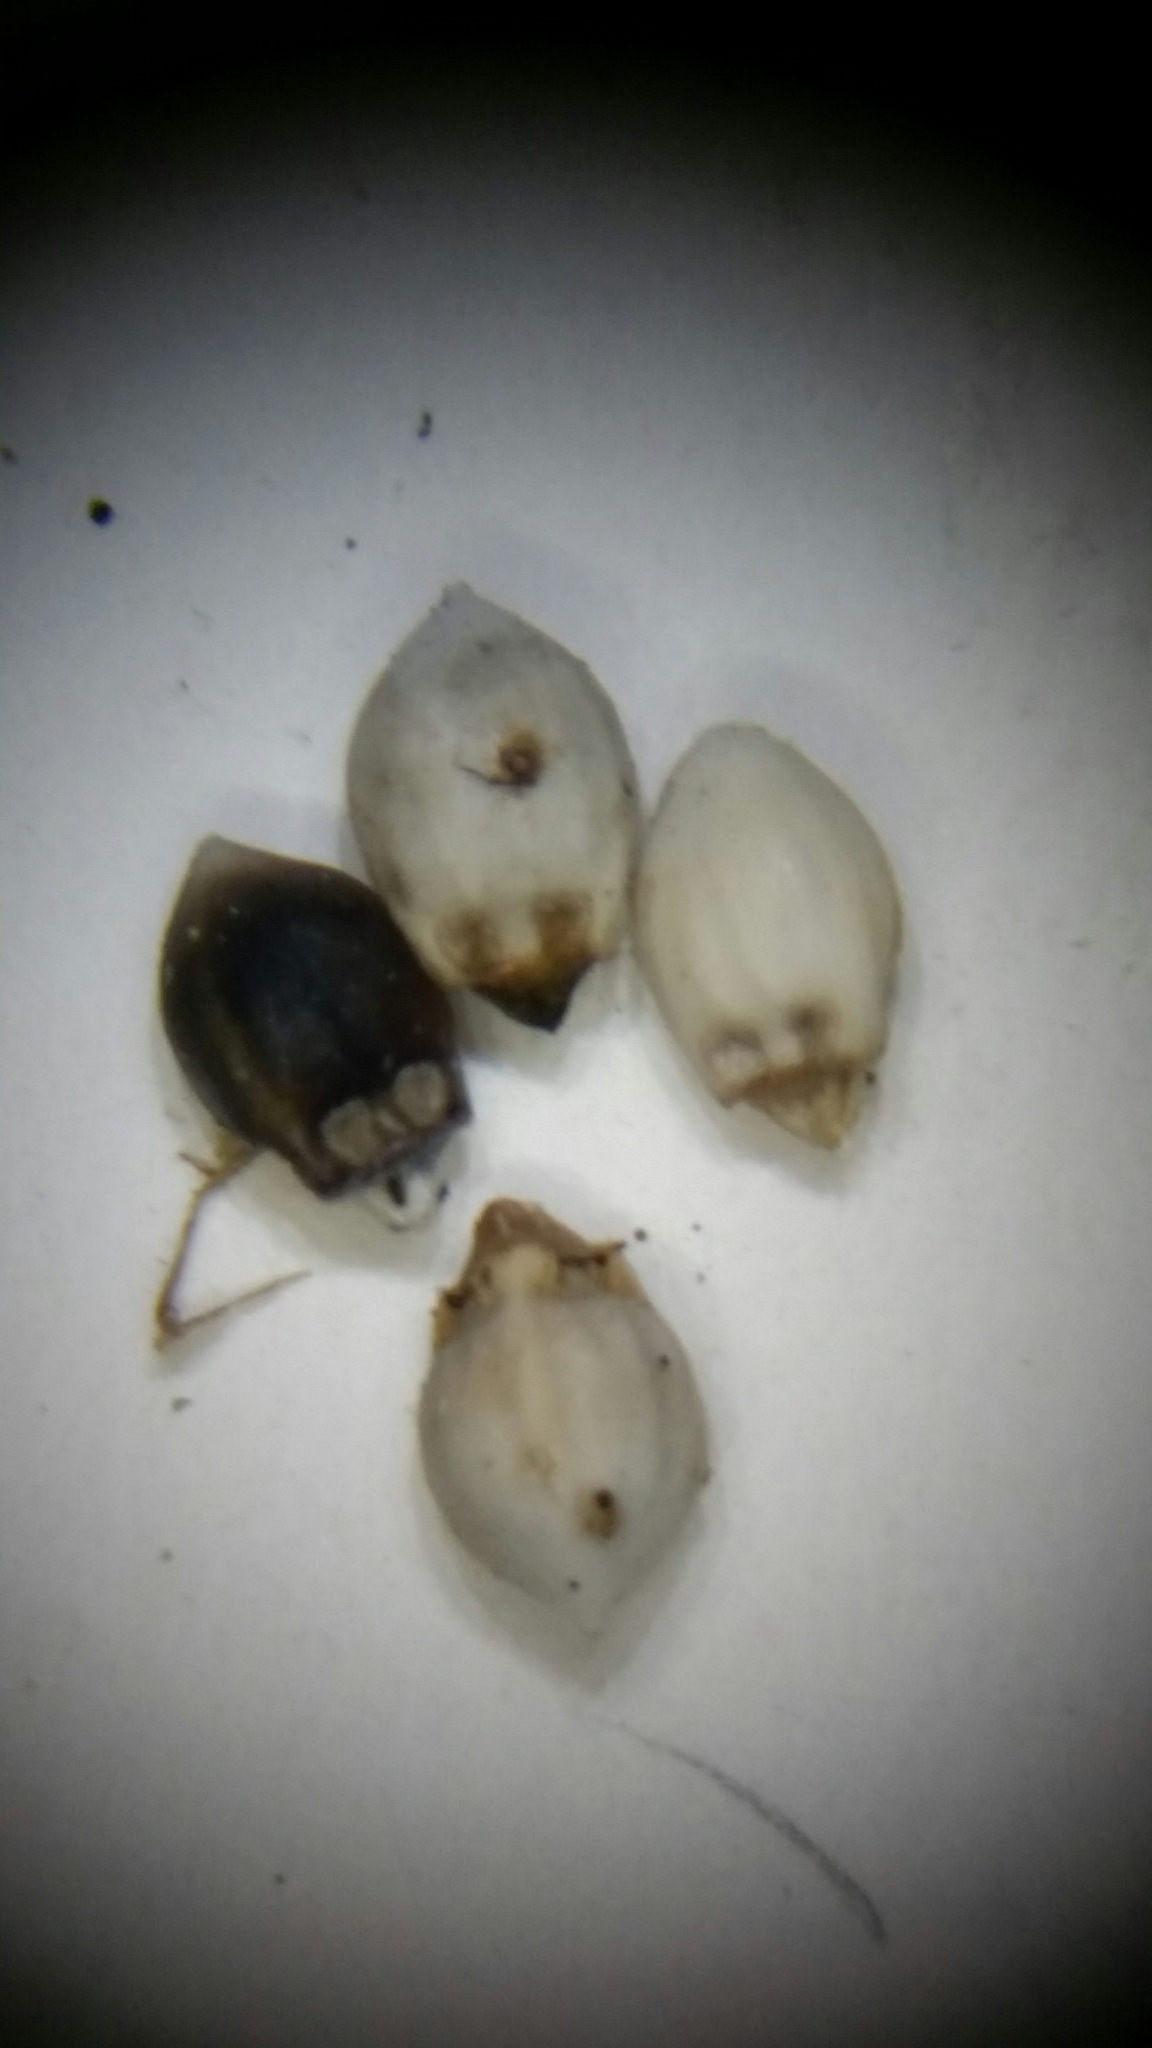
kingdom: Plantae
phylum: Tracheophyta
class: Liliopsida
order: Poales
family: Cyperaceae
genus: Scleria
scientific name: Scleria georgiana
